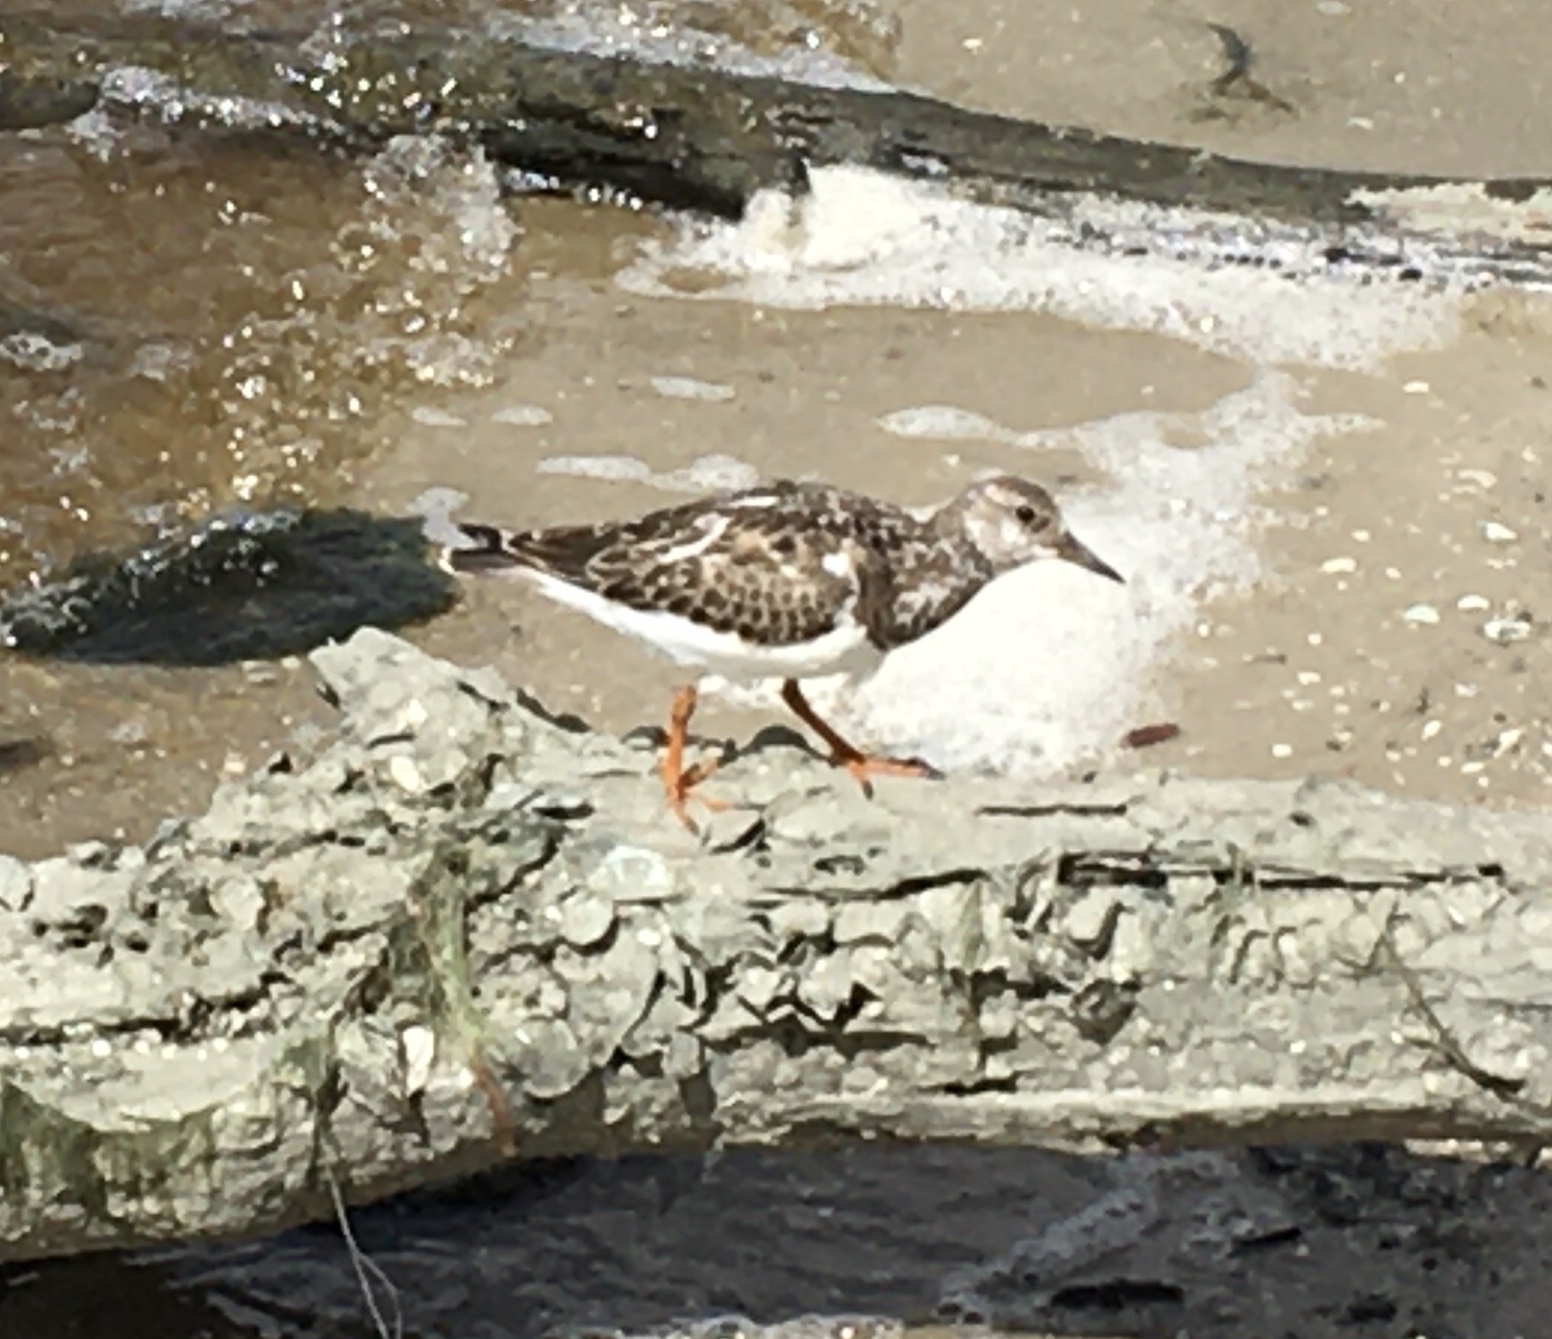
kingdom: Animalia
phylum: Chordata
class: Aves
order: Charadriiformes
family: Scolopacidae
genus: Arenaria
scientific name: Arenaria interpres
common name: Ruddy turnstone
